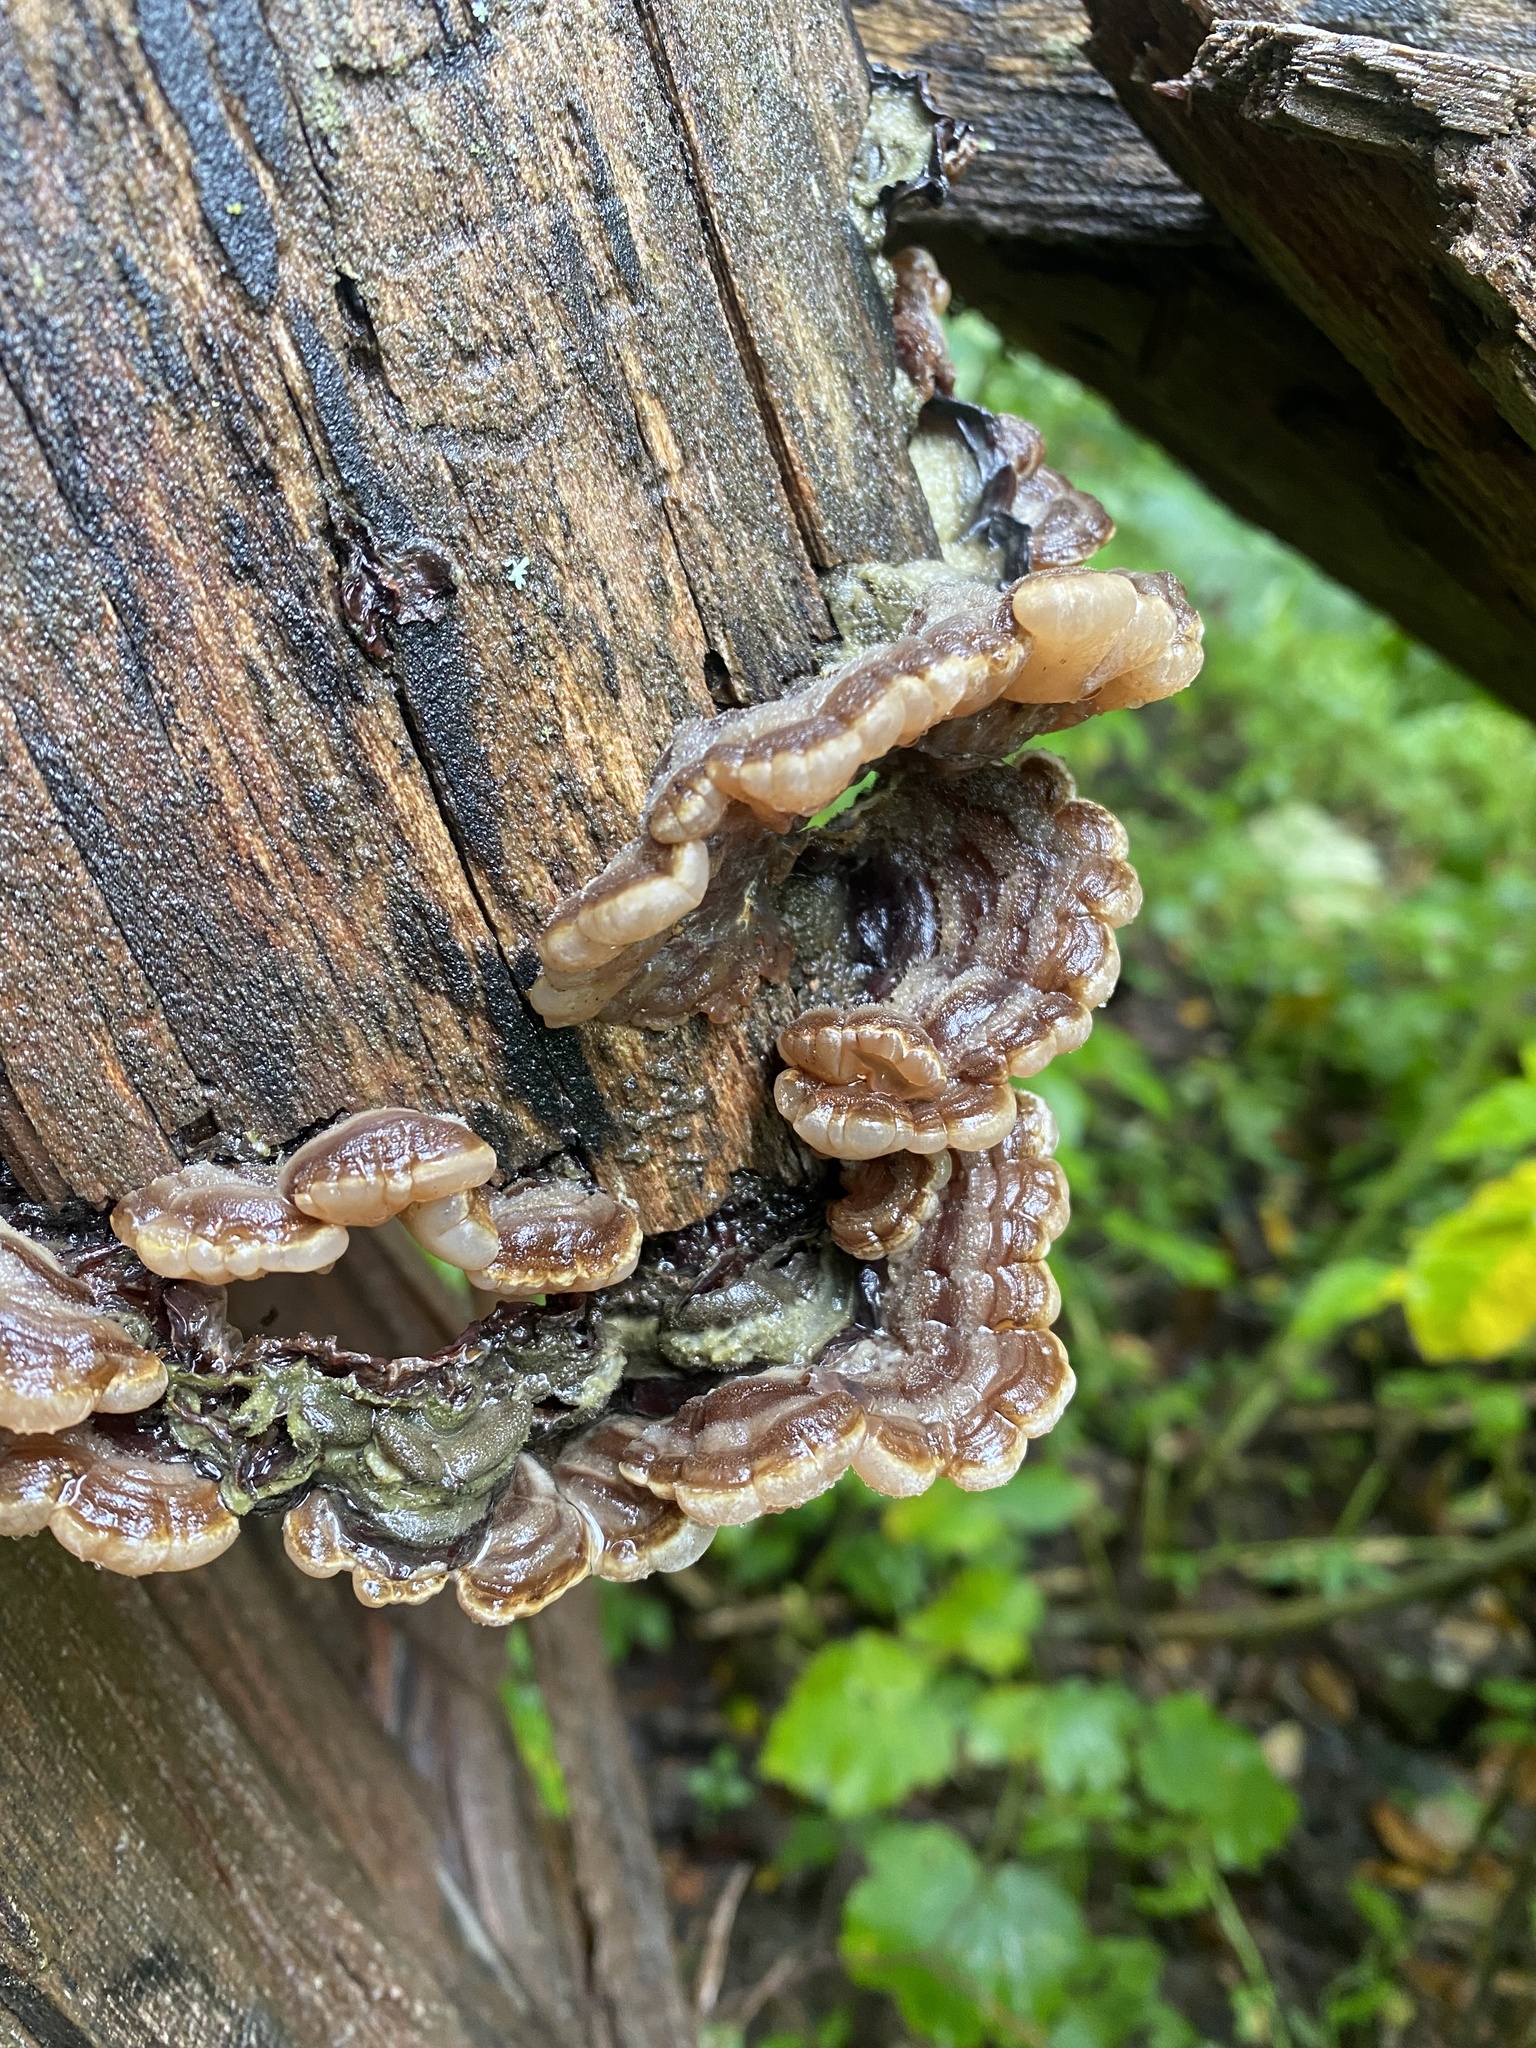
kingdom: Fungi
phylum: Basidiomycota
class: Agaricomycetes
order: Auriculariales
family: Auriculariaceae
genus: Auricularia
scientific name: Auricularia
